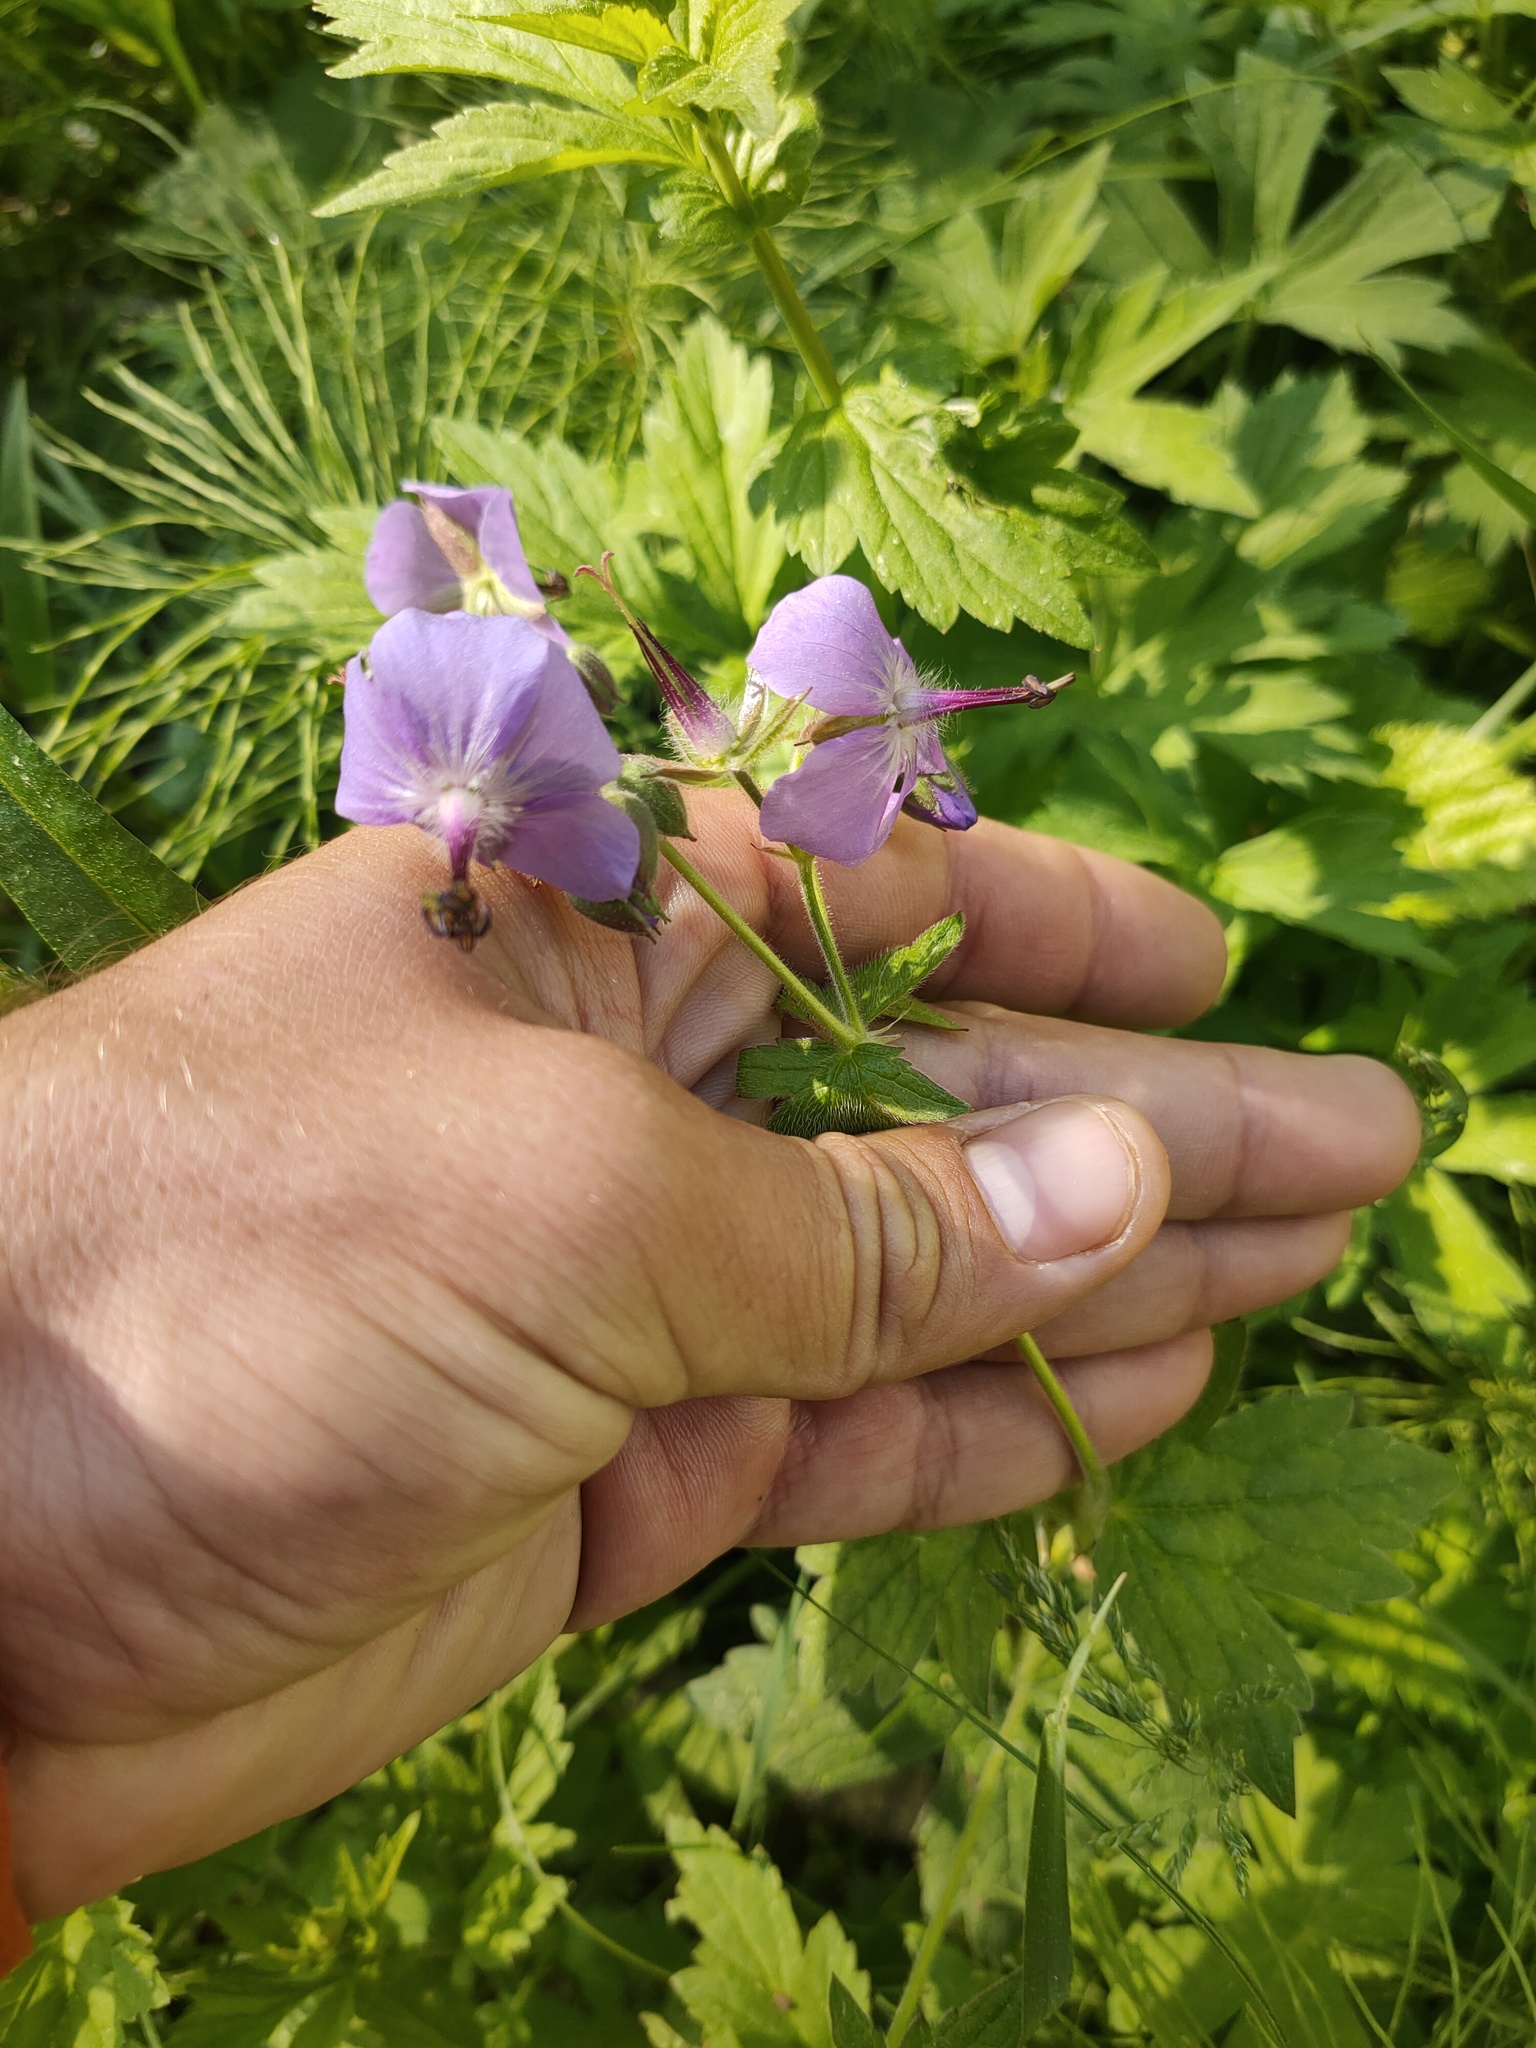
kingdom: Plantae
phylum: Tracheophyta
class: Magnoliopsida
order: Geraniales
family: Geraniaceae
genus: Geranium
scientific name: Geranium platyanthum
